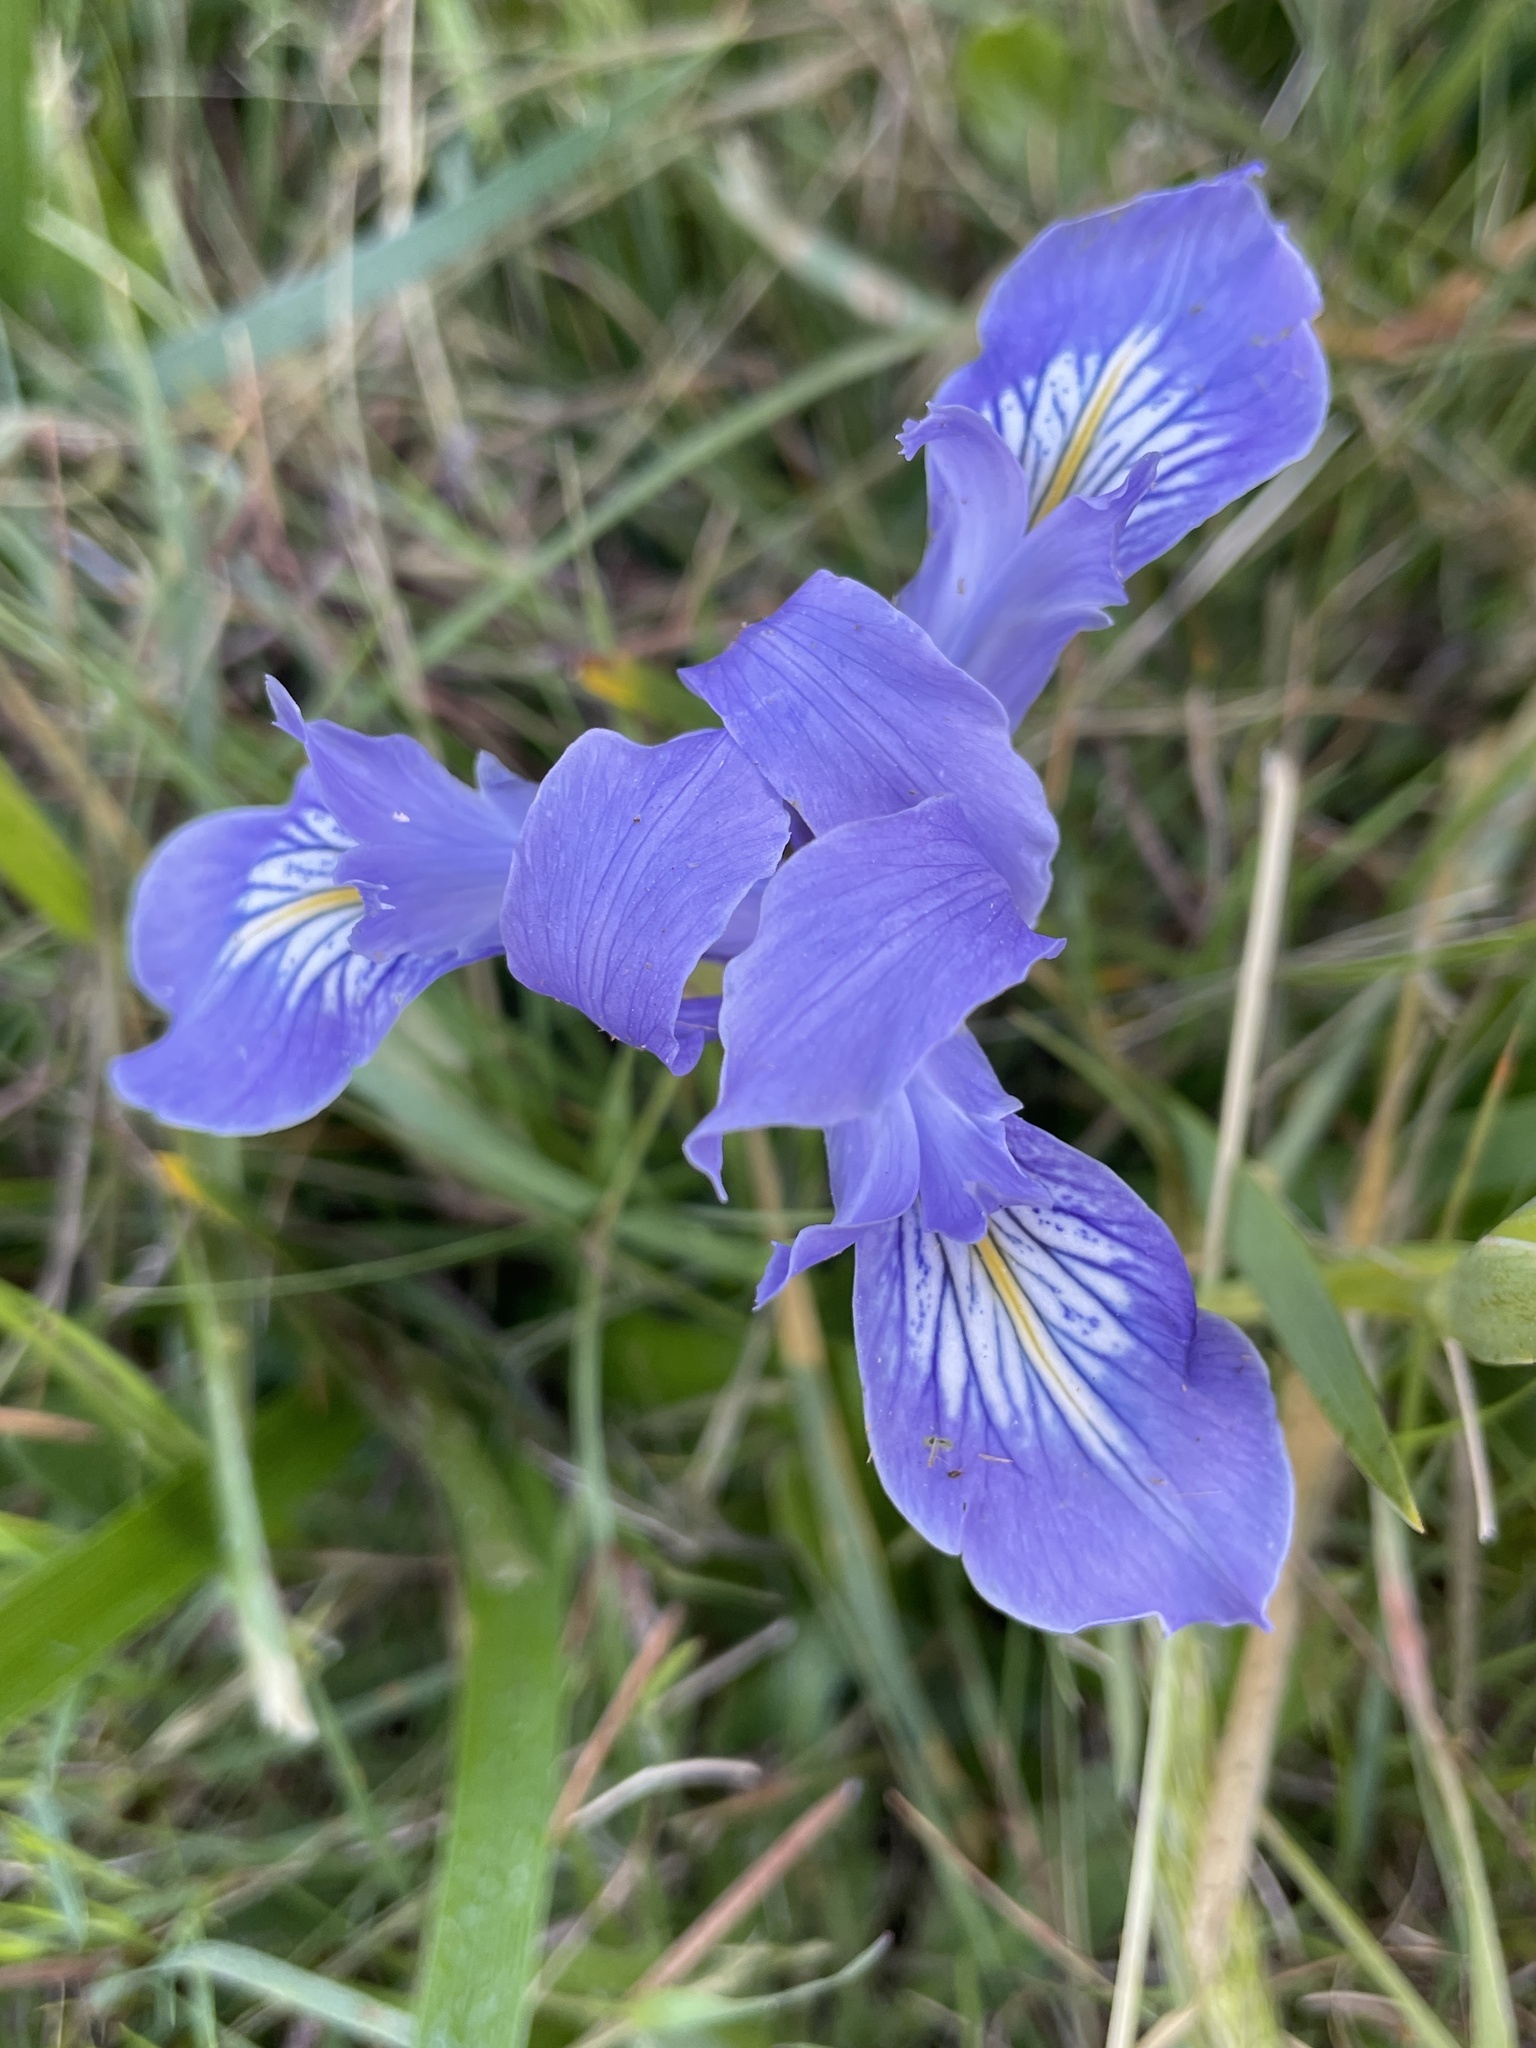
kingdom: Plantae
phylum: Tracheophyta
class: Liliopsida
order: Asparagales
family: Iridaceae
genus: Iris
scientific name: Iris douglasiana
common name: Marin iris
